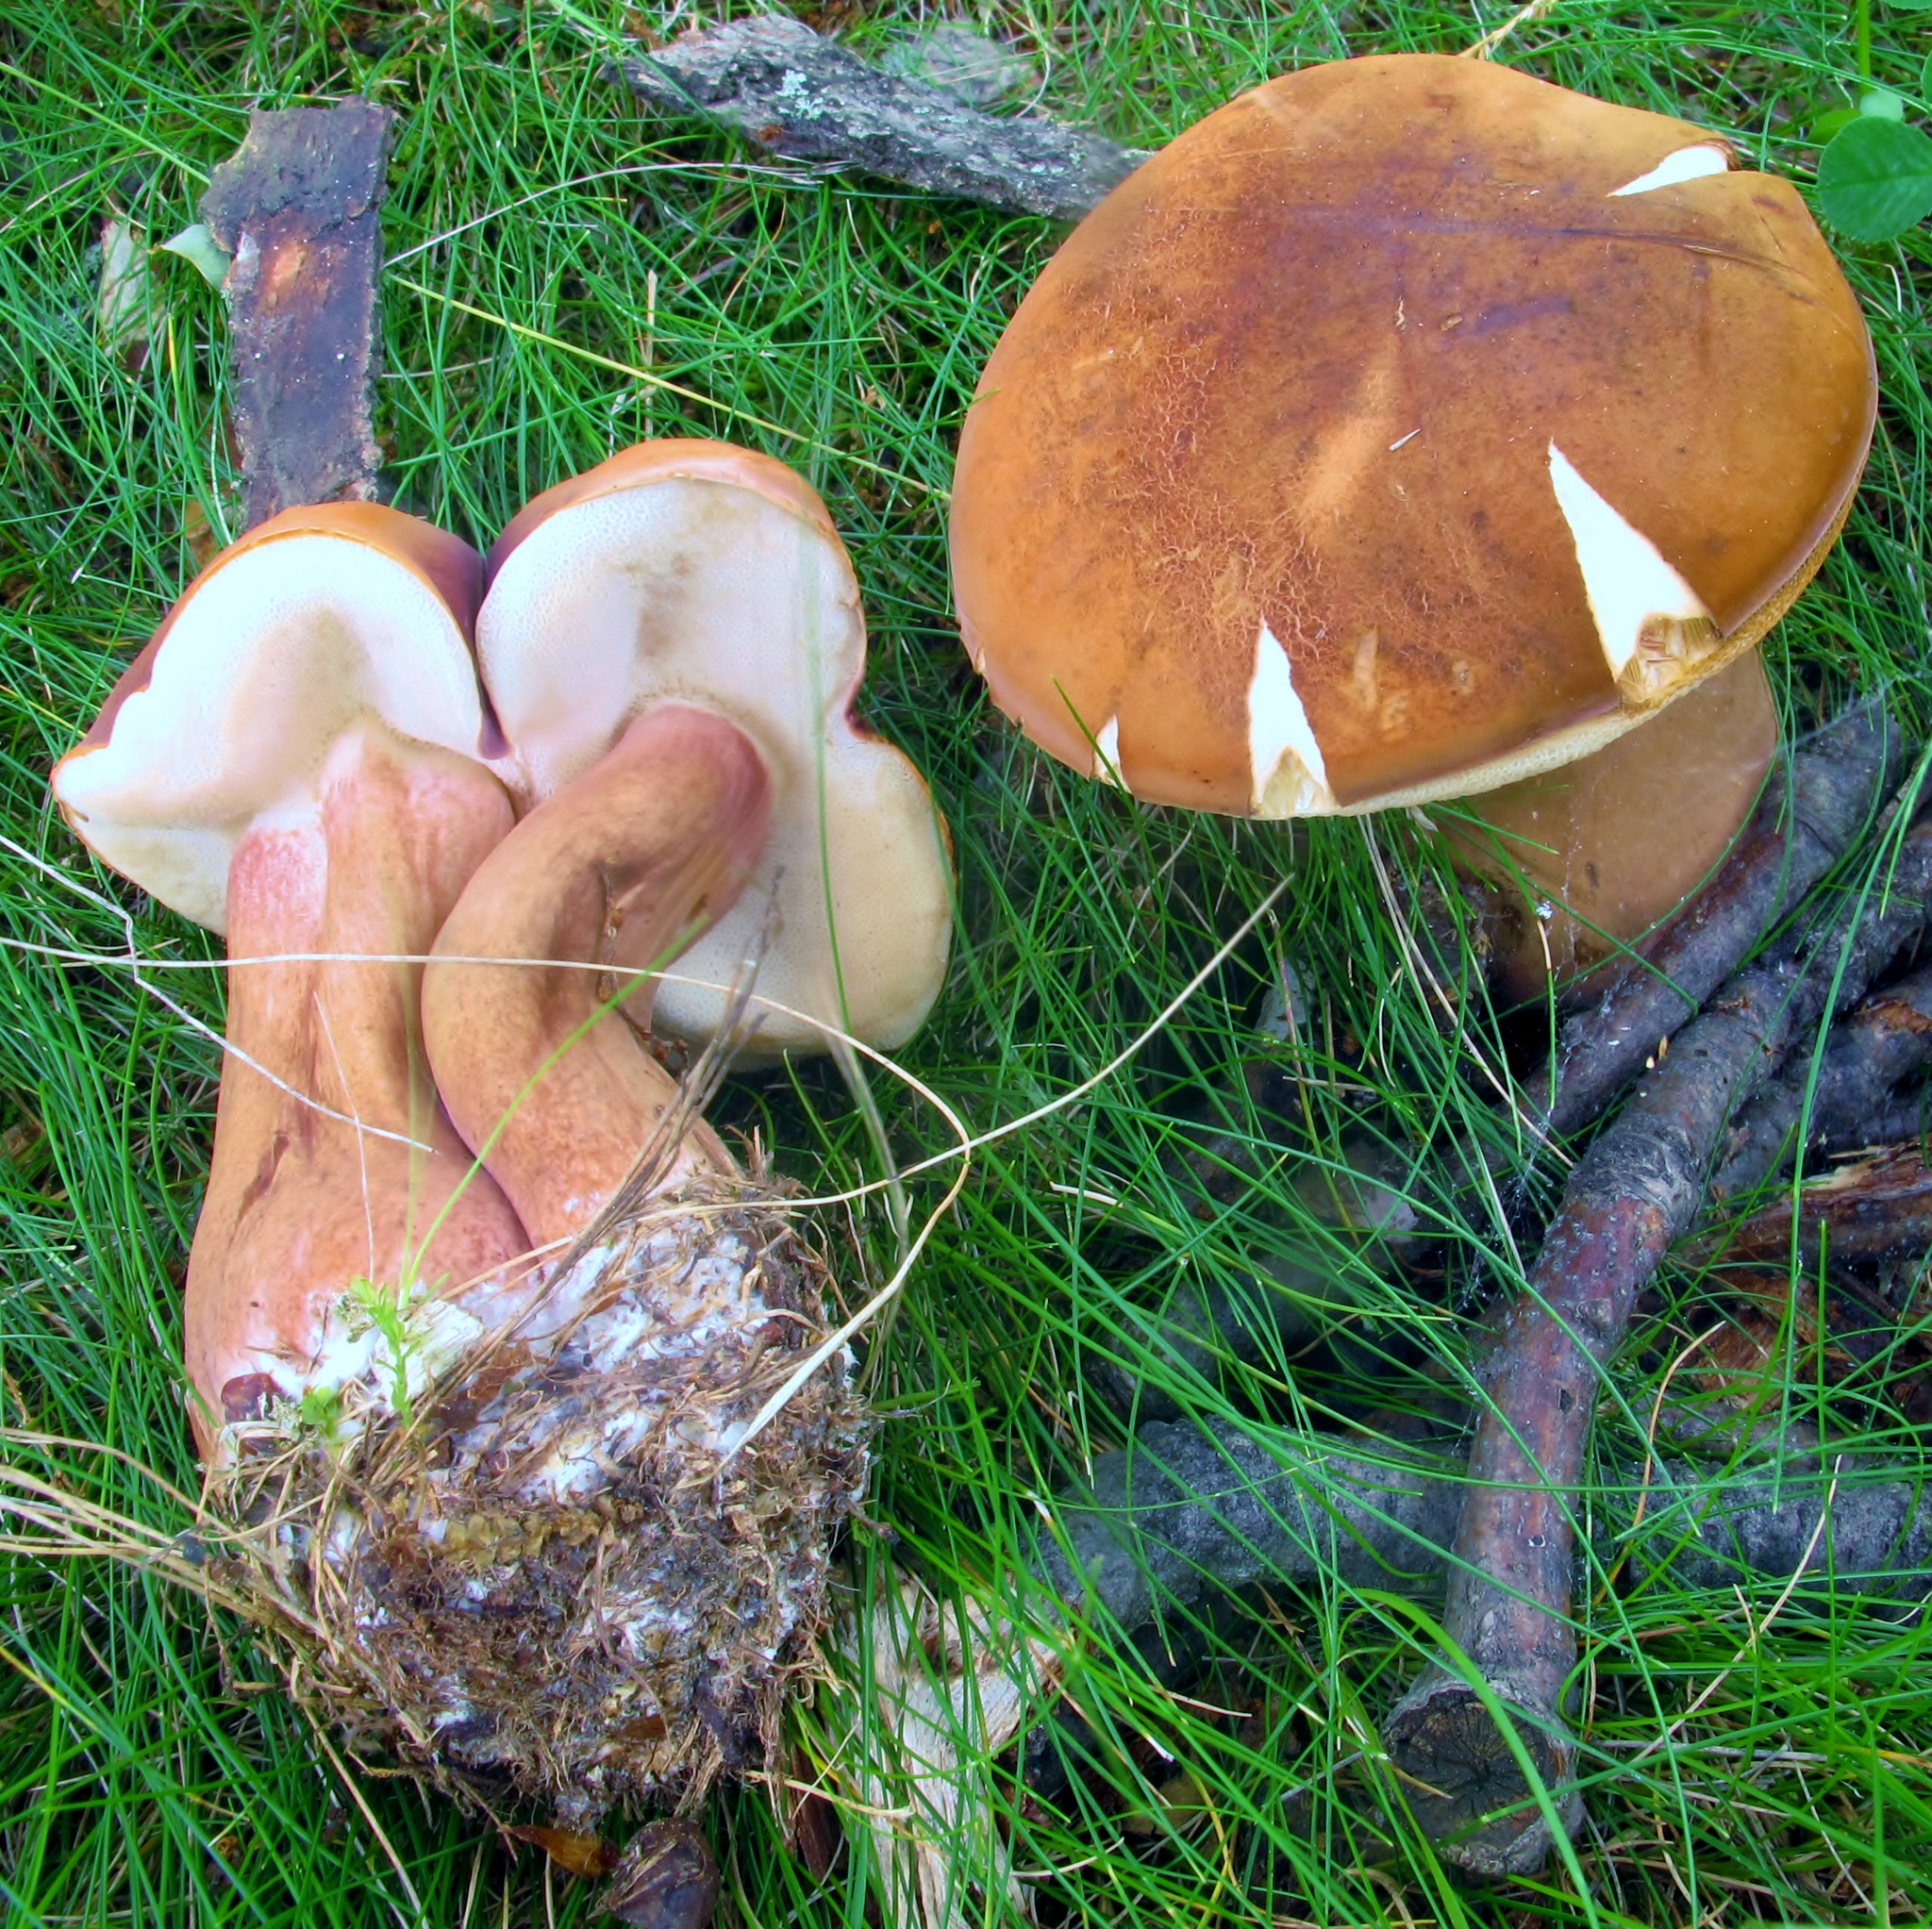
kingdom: Fungi
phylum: Basidiomycota
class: Agaricomycetes
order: Boletales
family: Boletaceae
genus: Tylopilus
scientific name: Tylopilus ferrugineus
